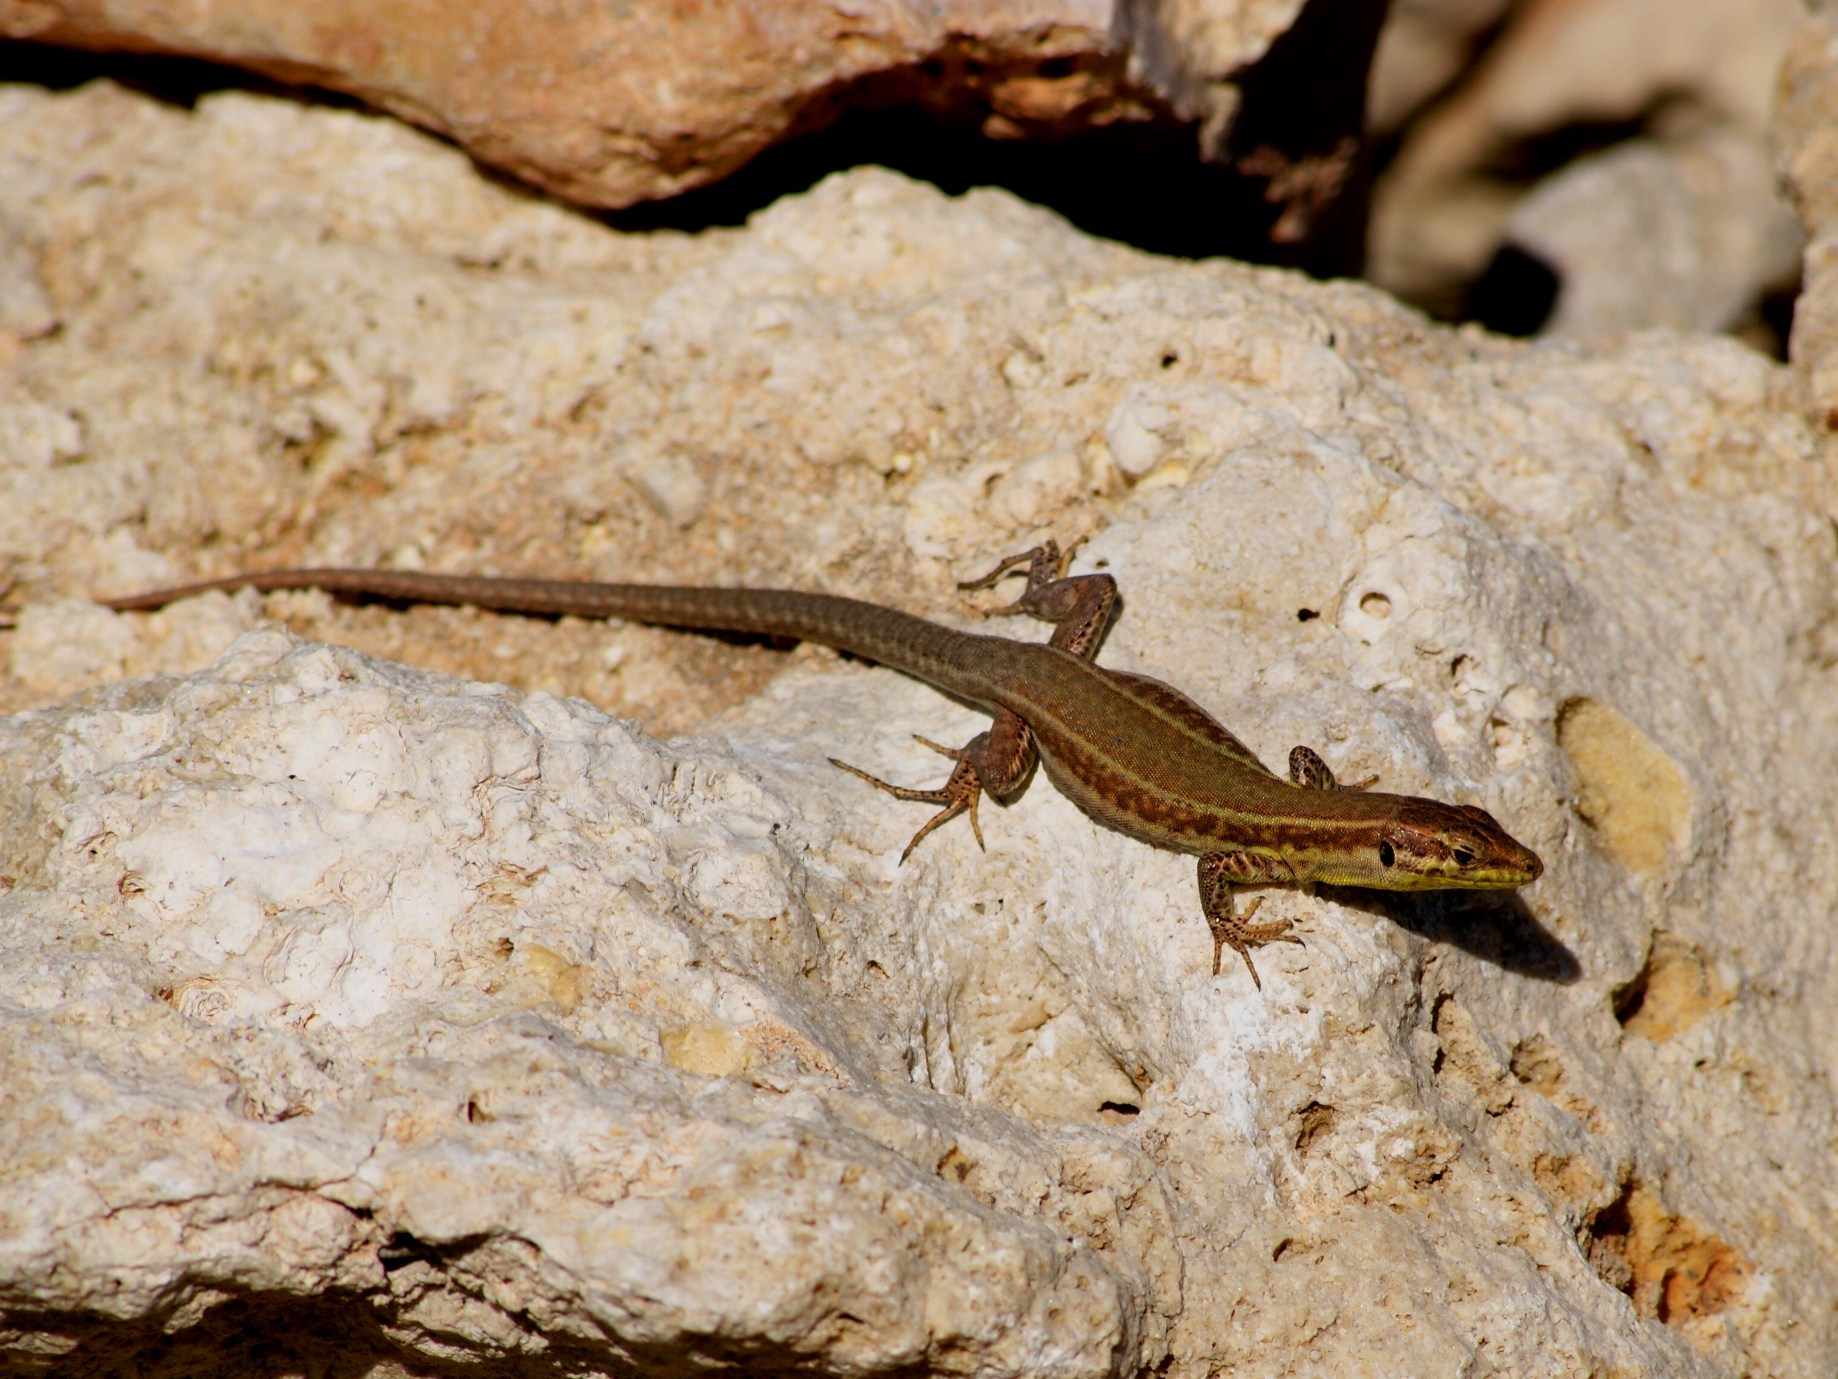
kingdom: Animalia
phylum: Chordata
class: Squamata
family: Lacertidae
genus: Podarcis
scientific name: Podarcis filfolensis
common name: Maltese wall lizard
